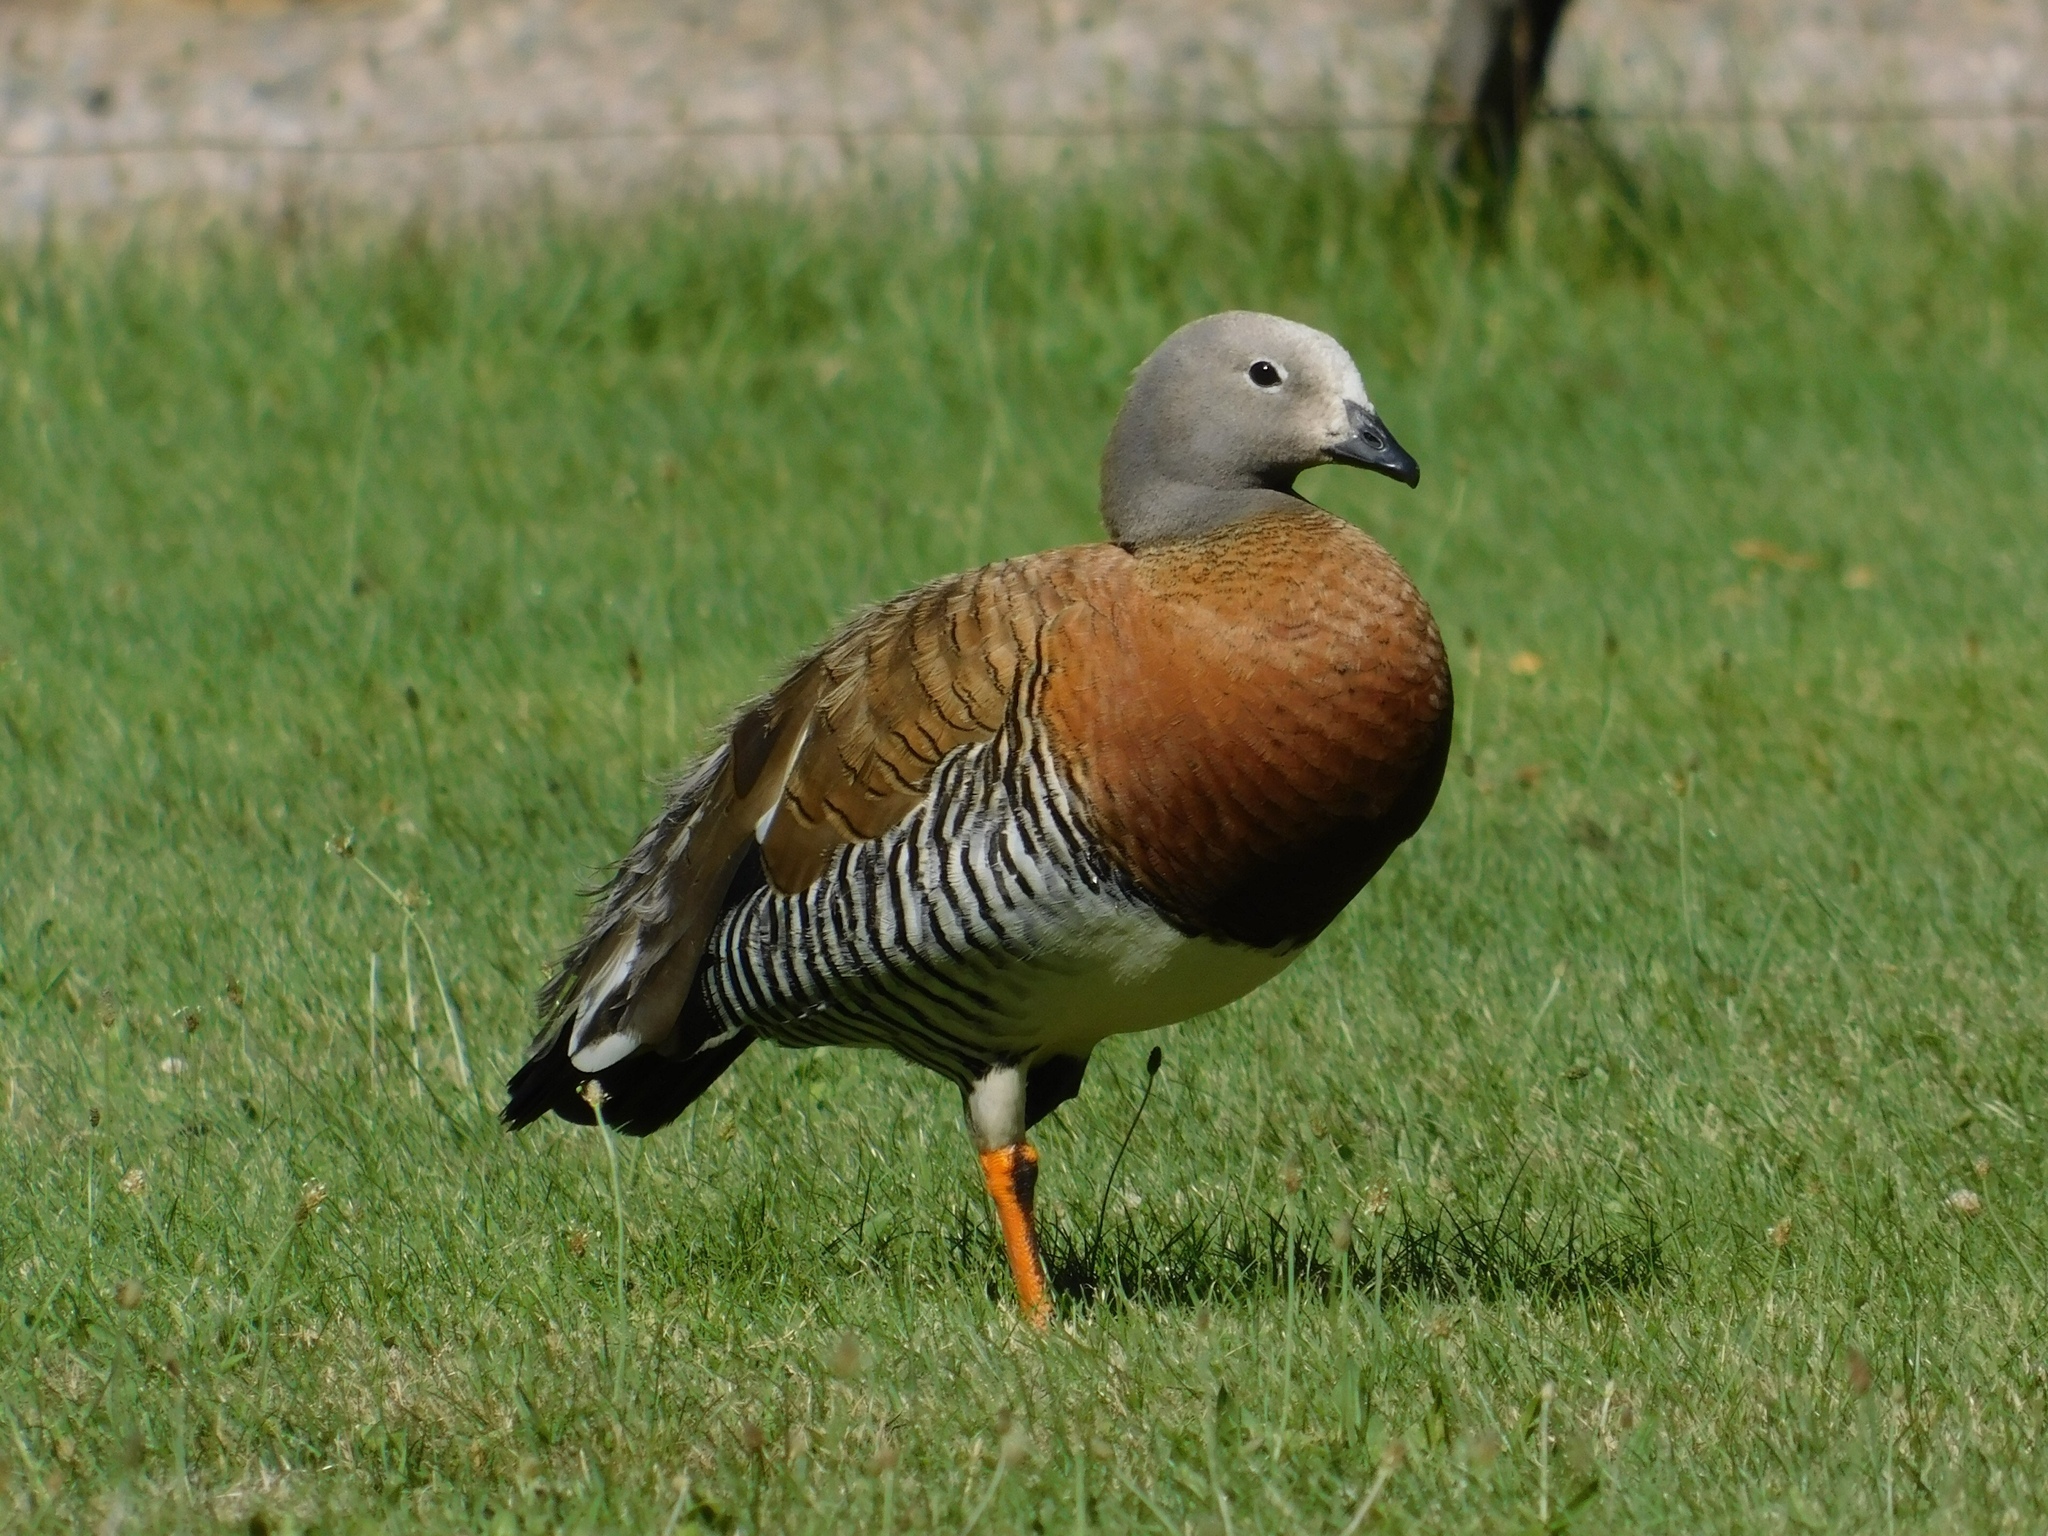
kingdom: Animalia
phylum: Chordata
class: Aves
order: Anseriformes
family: Anatidae
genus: Chloephaga
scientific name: Chloephaga poliocephala
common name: Ashy-headed goose
